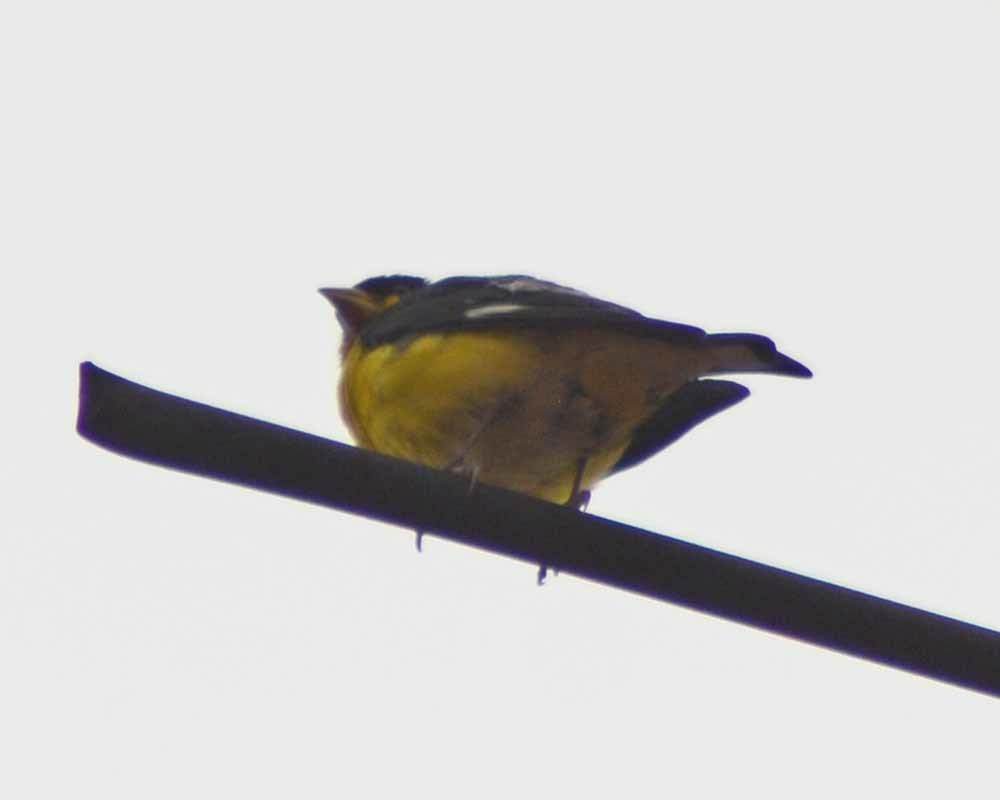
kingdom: Animalia
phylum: Chordata
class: Aves
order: Passeriformes
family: Fringillidae
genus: Spinus
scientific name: Spinus psaltria
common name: Lesser goldfinch
